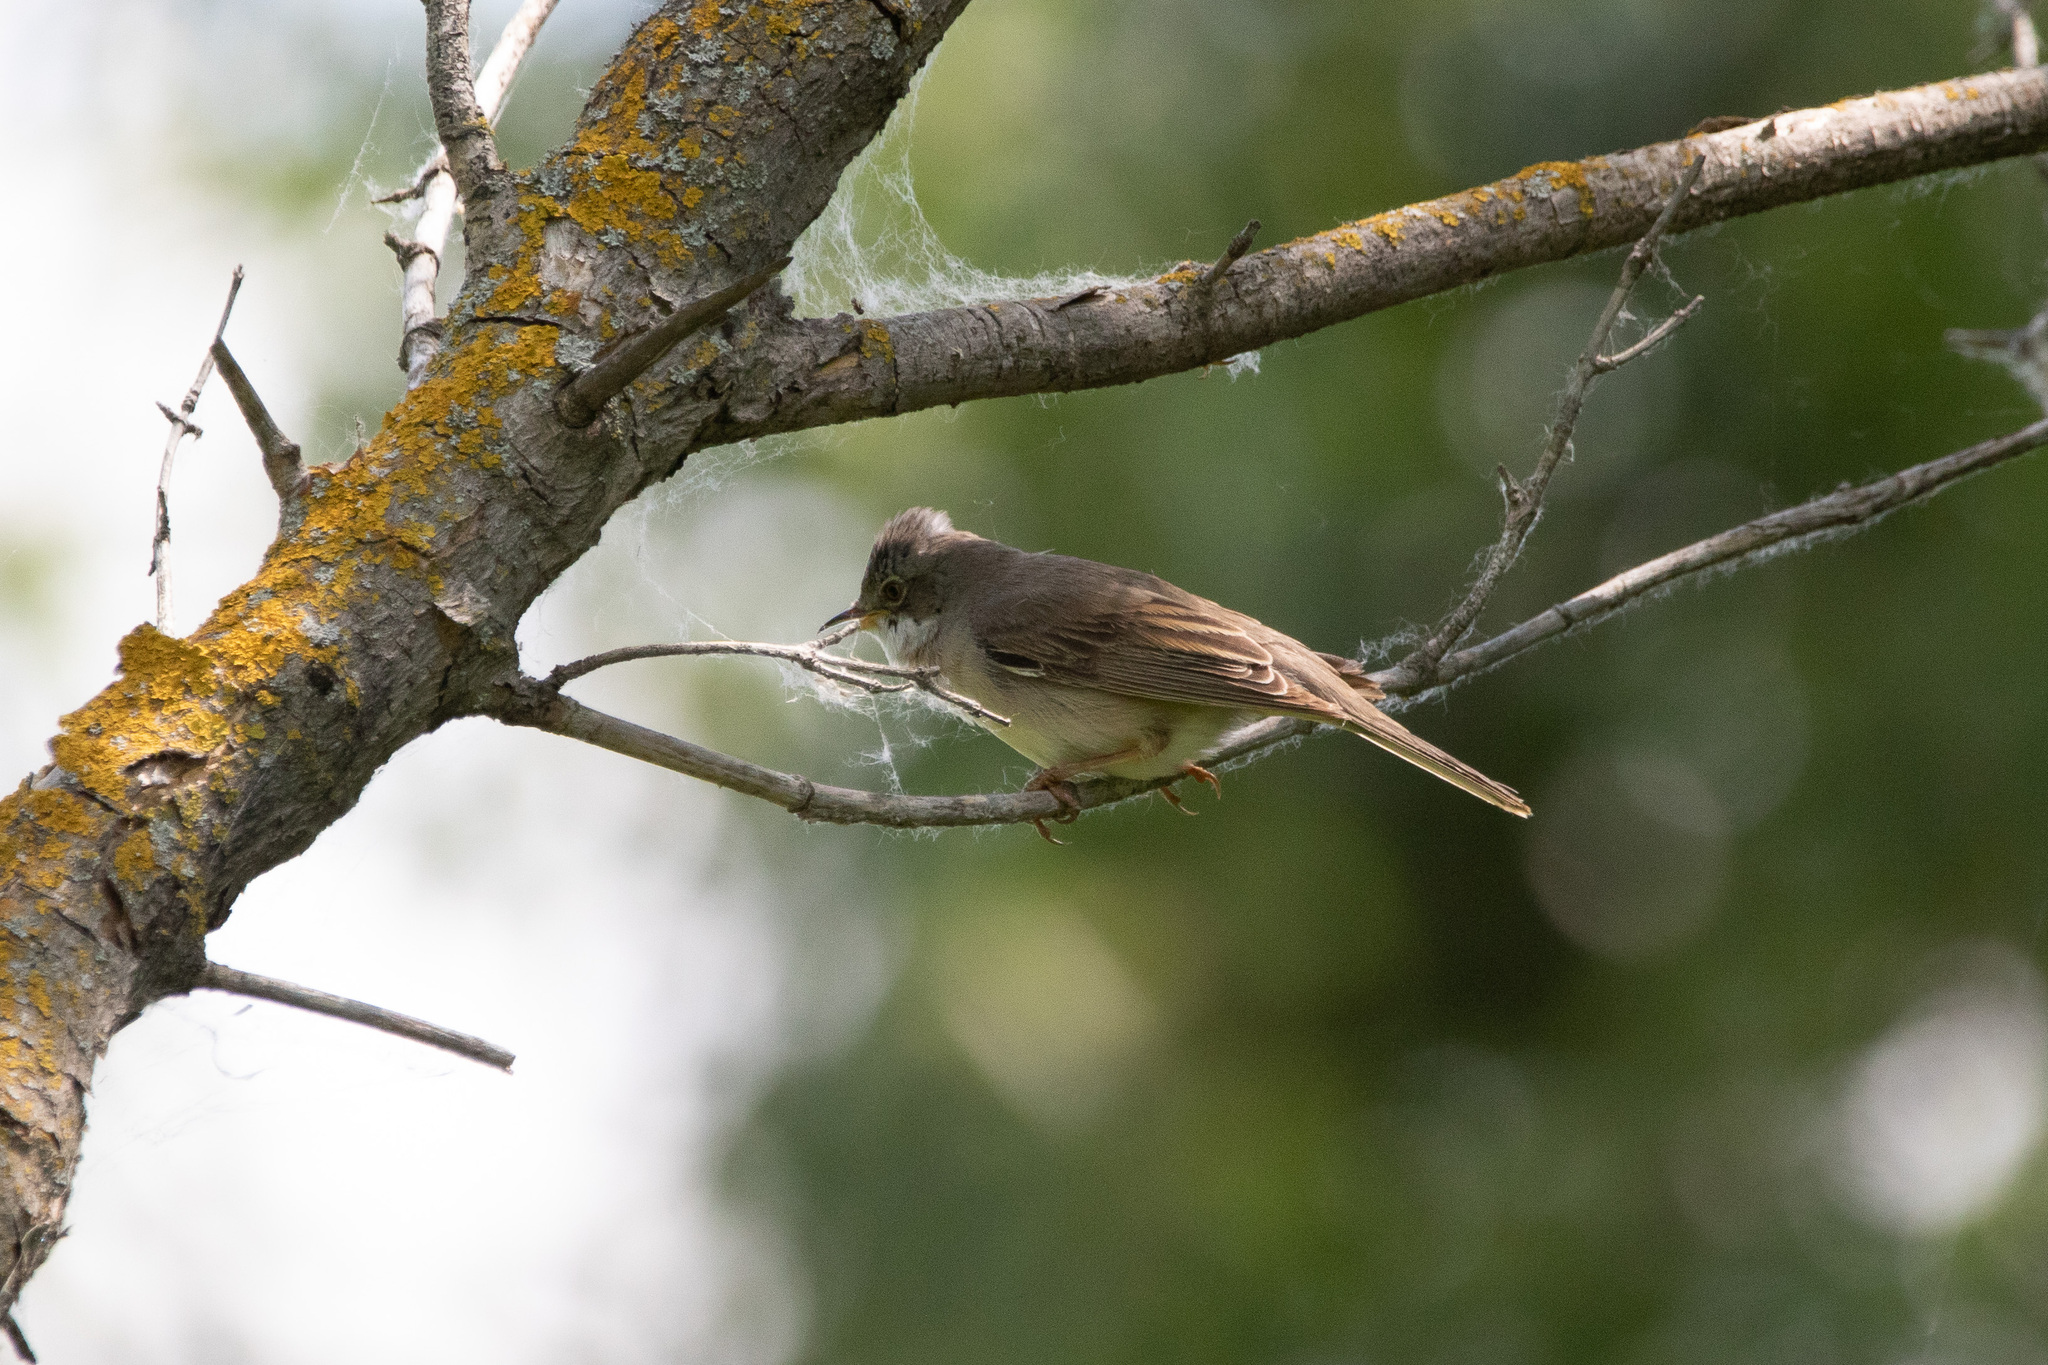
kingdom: Animalia
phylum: Chordata
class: Aves
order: Passeriformes
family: Sylviidae
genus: Sylvia
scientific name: Sylvia communis
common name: Common whitethroat
